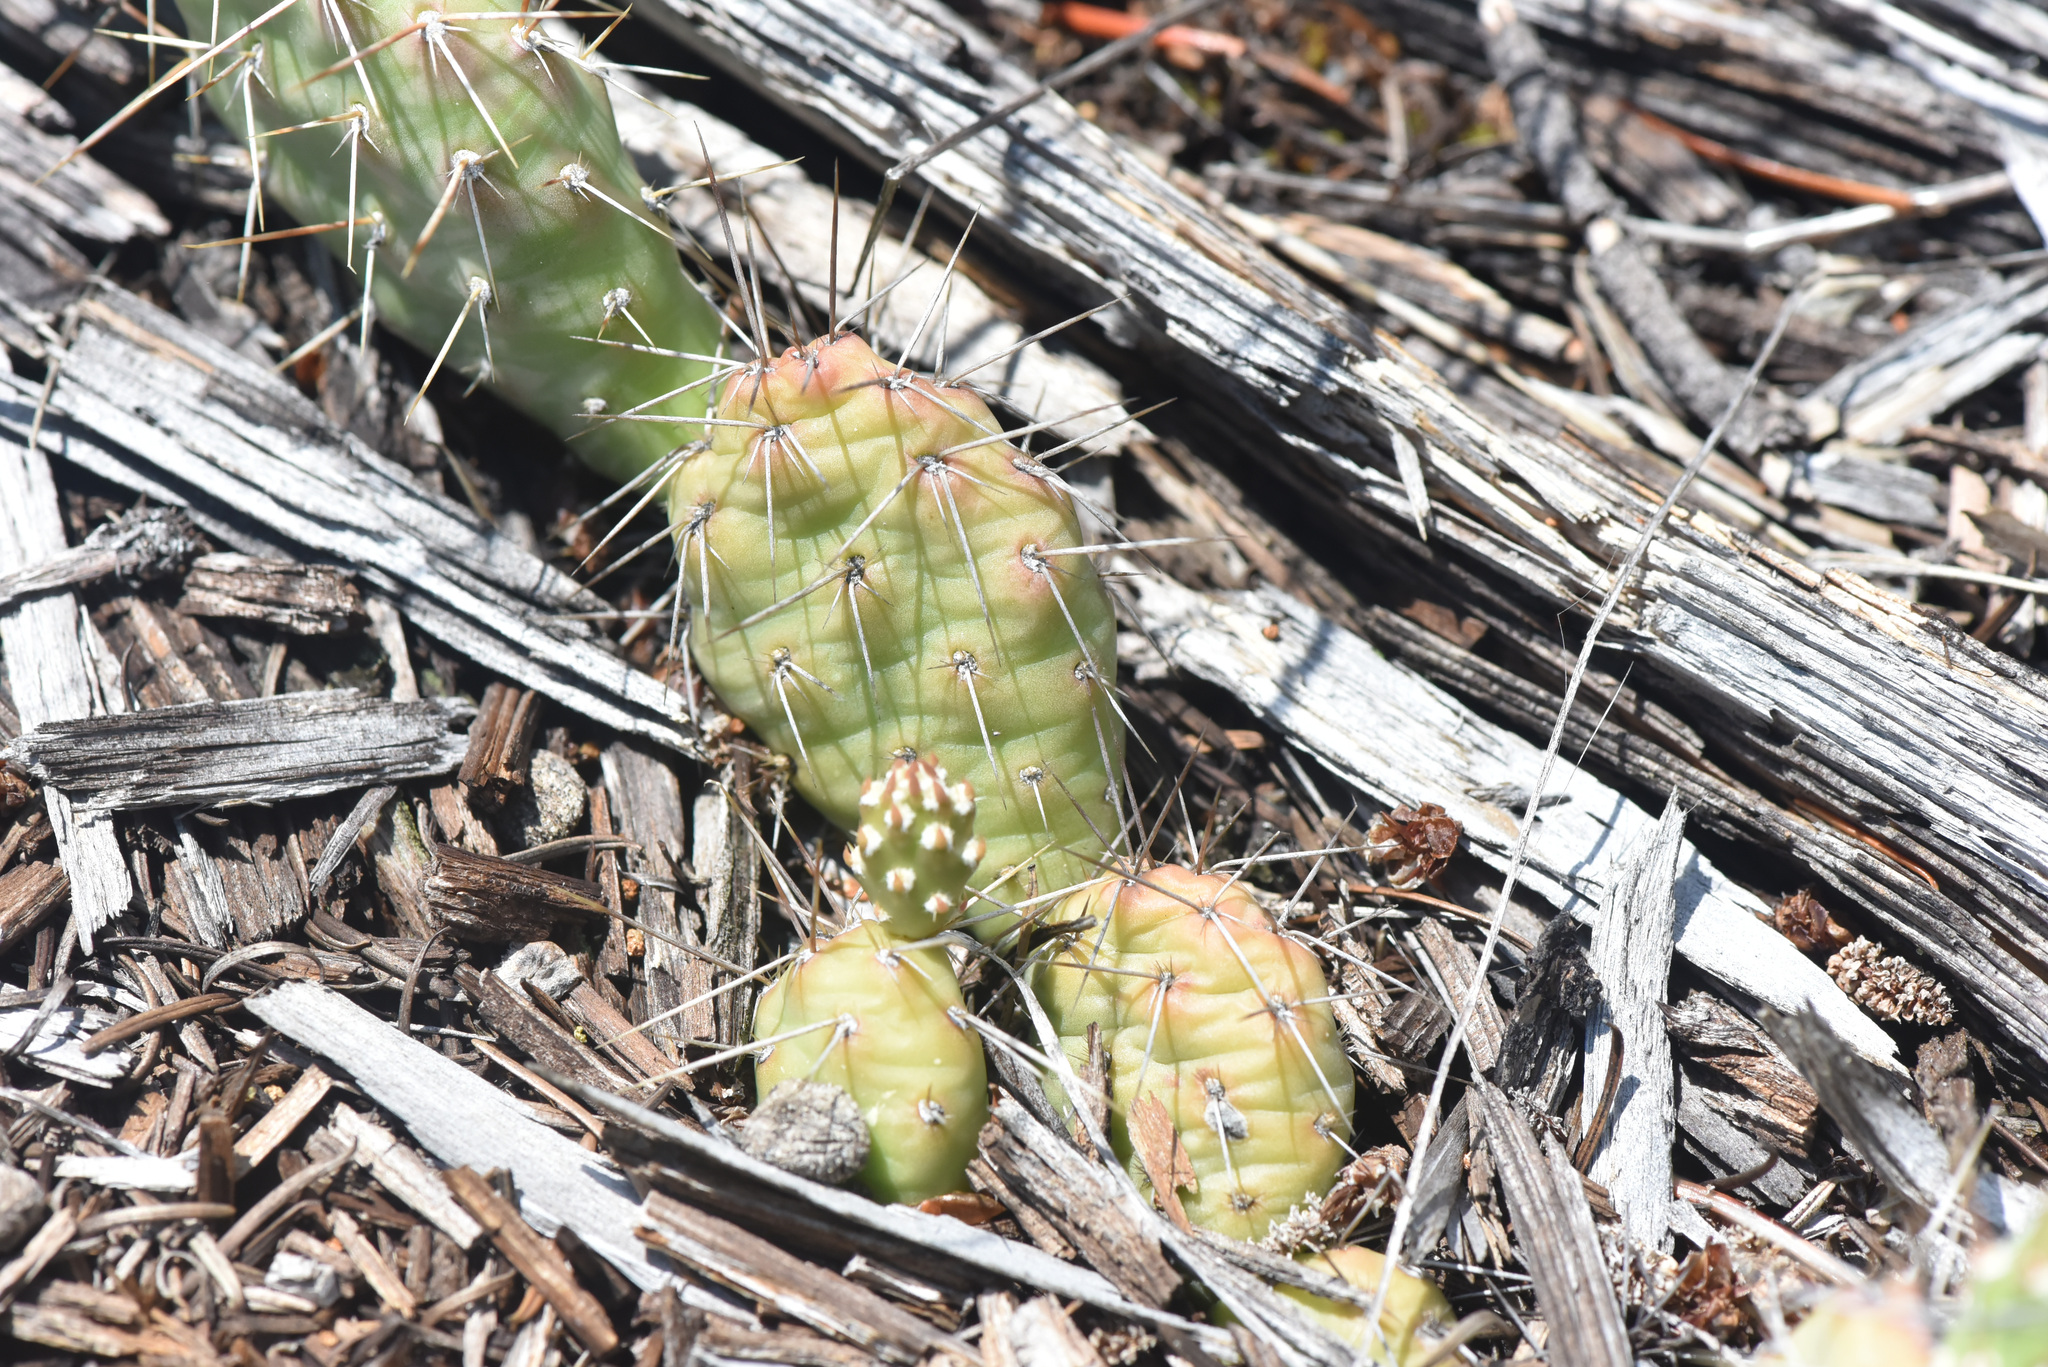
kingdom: Plantae
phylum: Tracheophyta
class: Magnoliopsida
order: Caryophyllales
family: Cactaceae
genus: Opuntia
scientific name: Opuntia fragilis
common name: Brittle cactus
